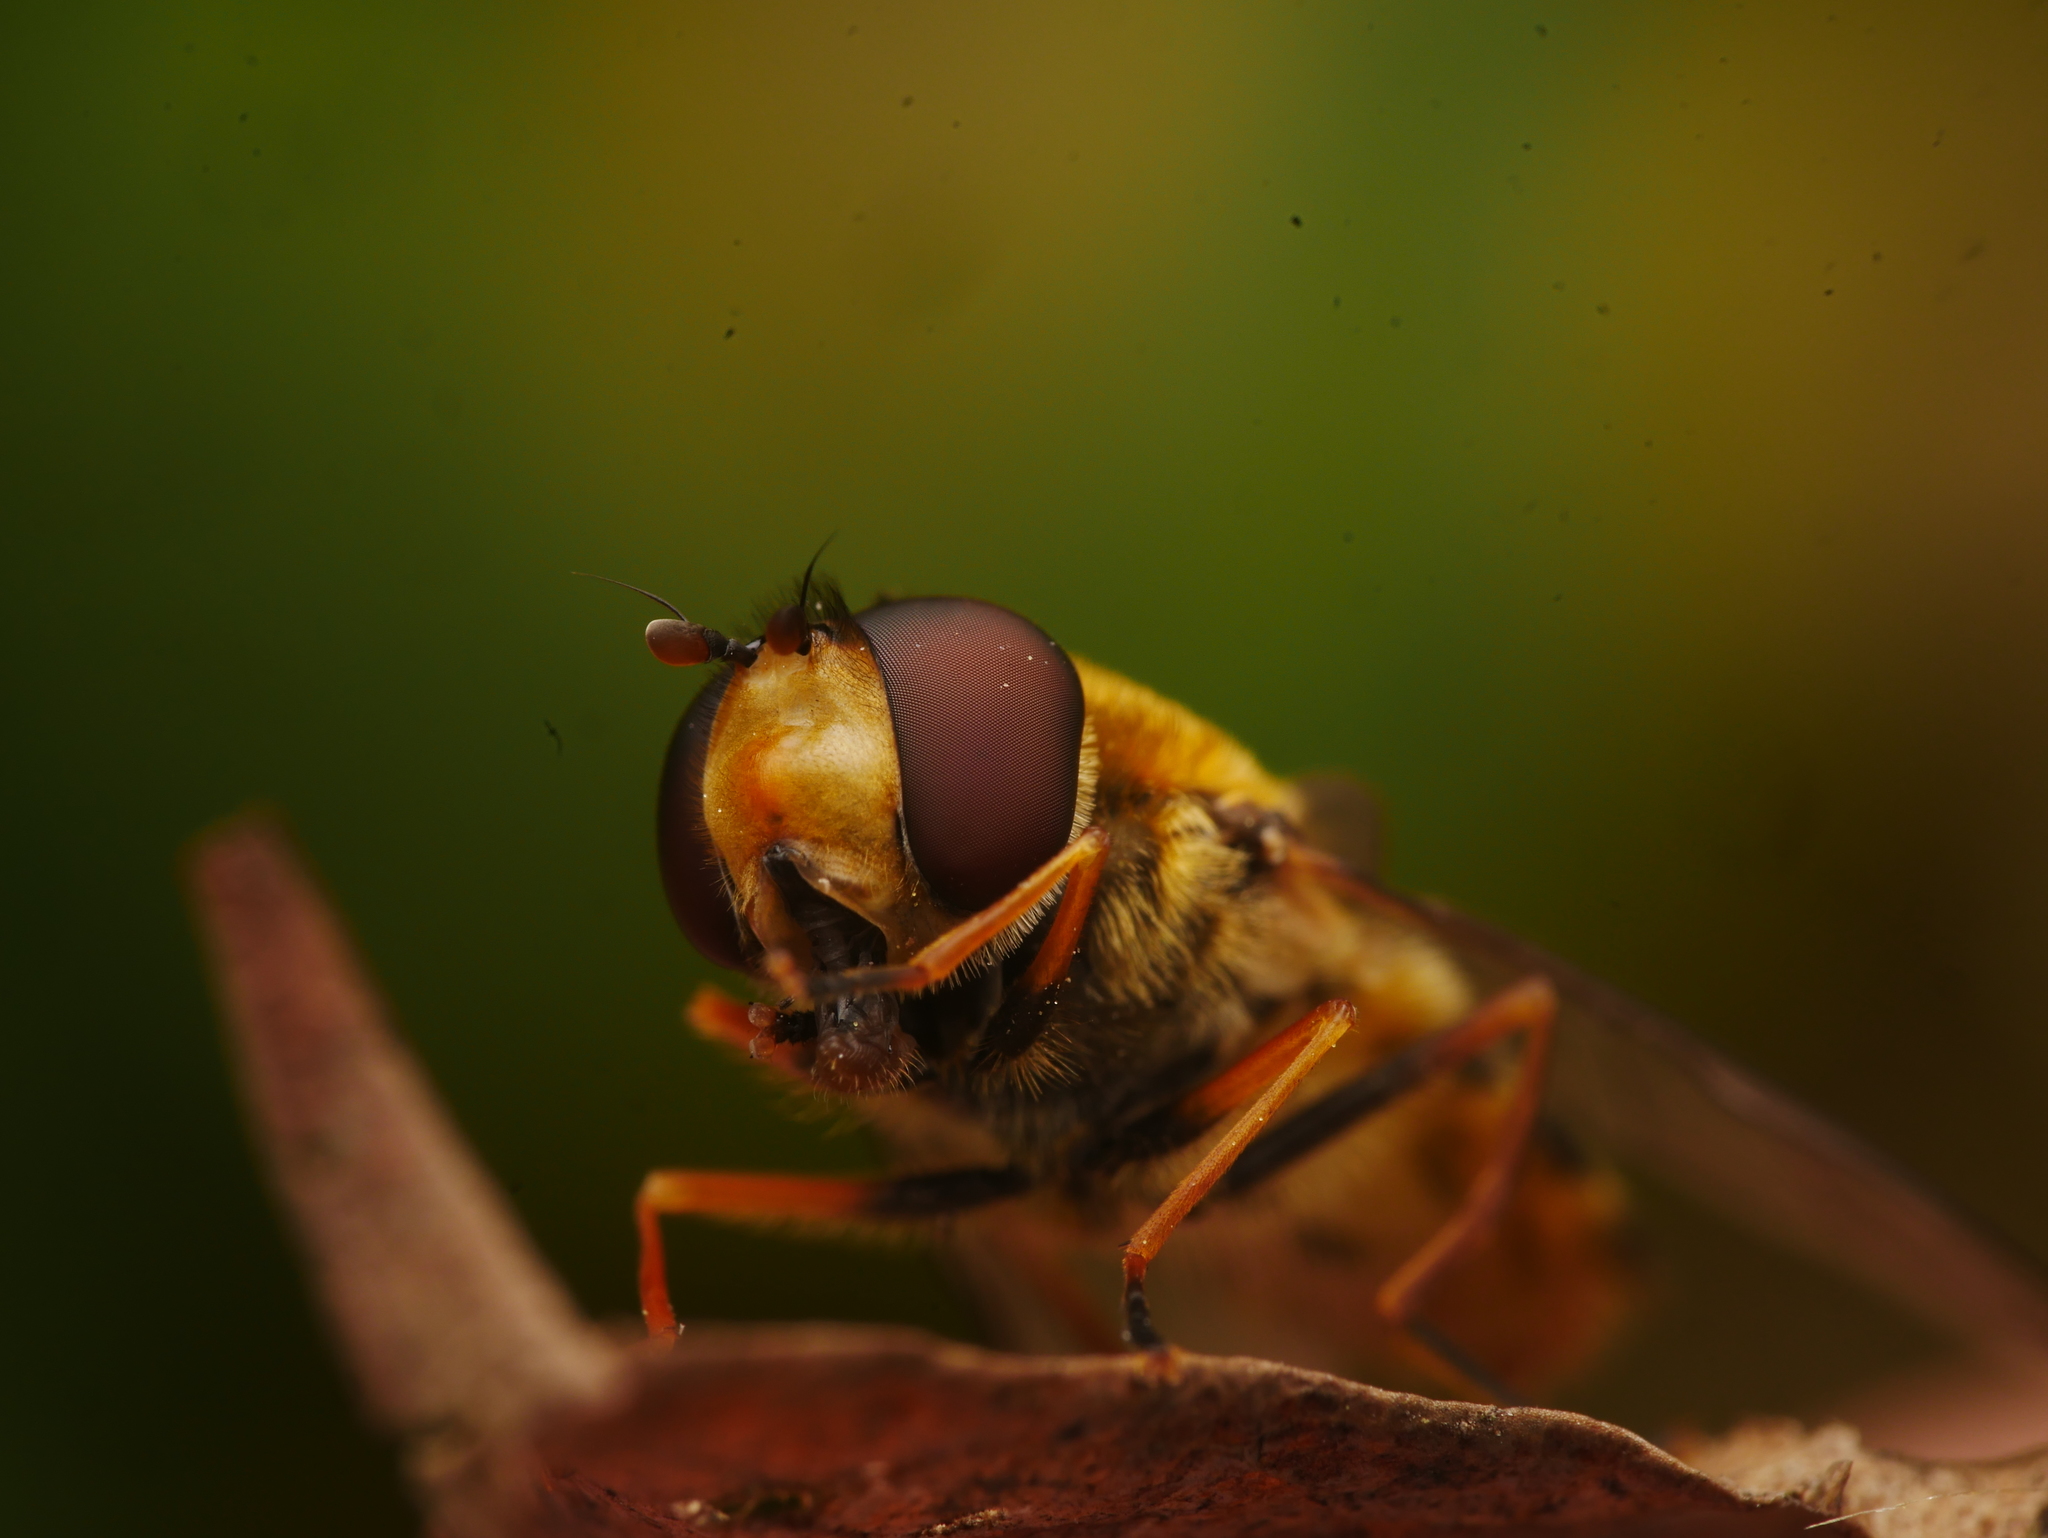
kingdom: Animalia
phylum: Arthropoda
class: Insecta
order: Diptera
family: Syrphidae
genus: Syrphus
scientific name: Syrphus
